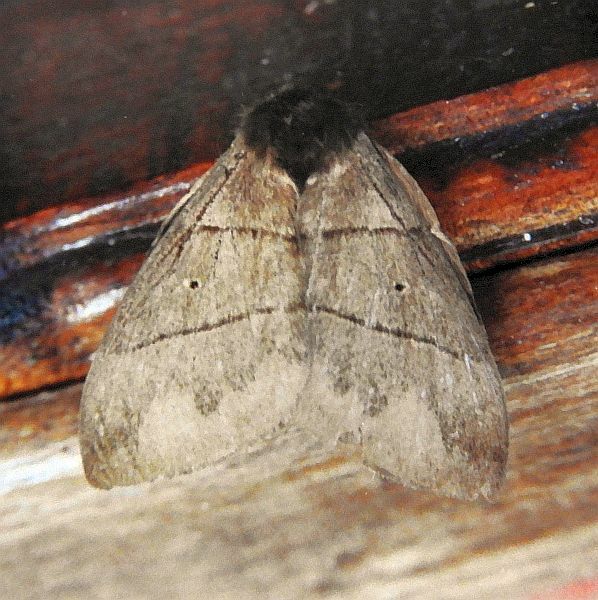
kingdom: Animalia
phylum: Arthropoda
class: Insecta
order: Lepidoptera
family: Saturniidae
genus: Dirphia
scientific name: Dirphia dolosa
